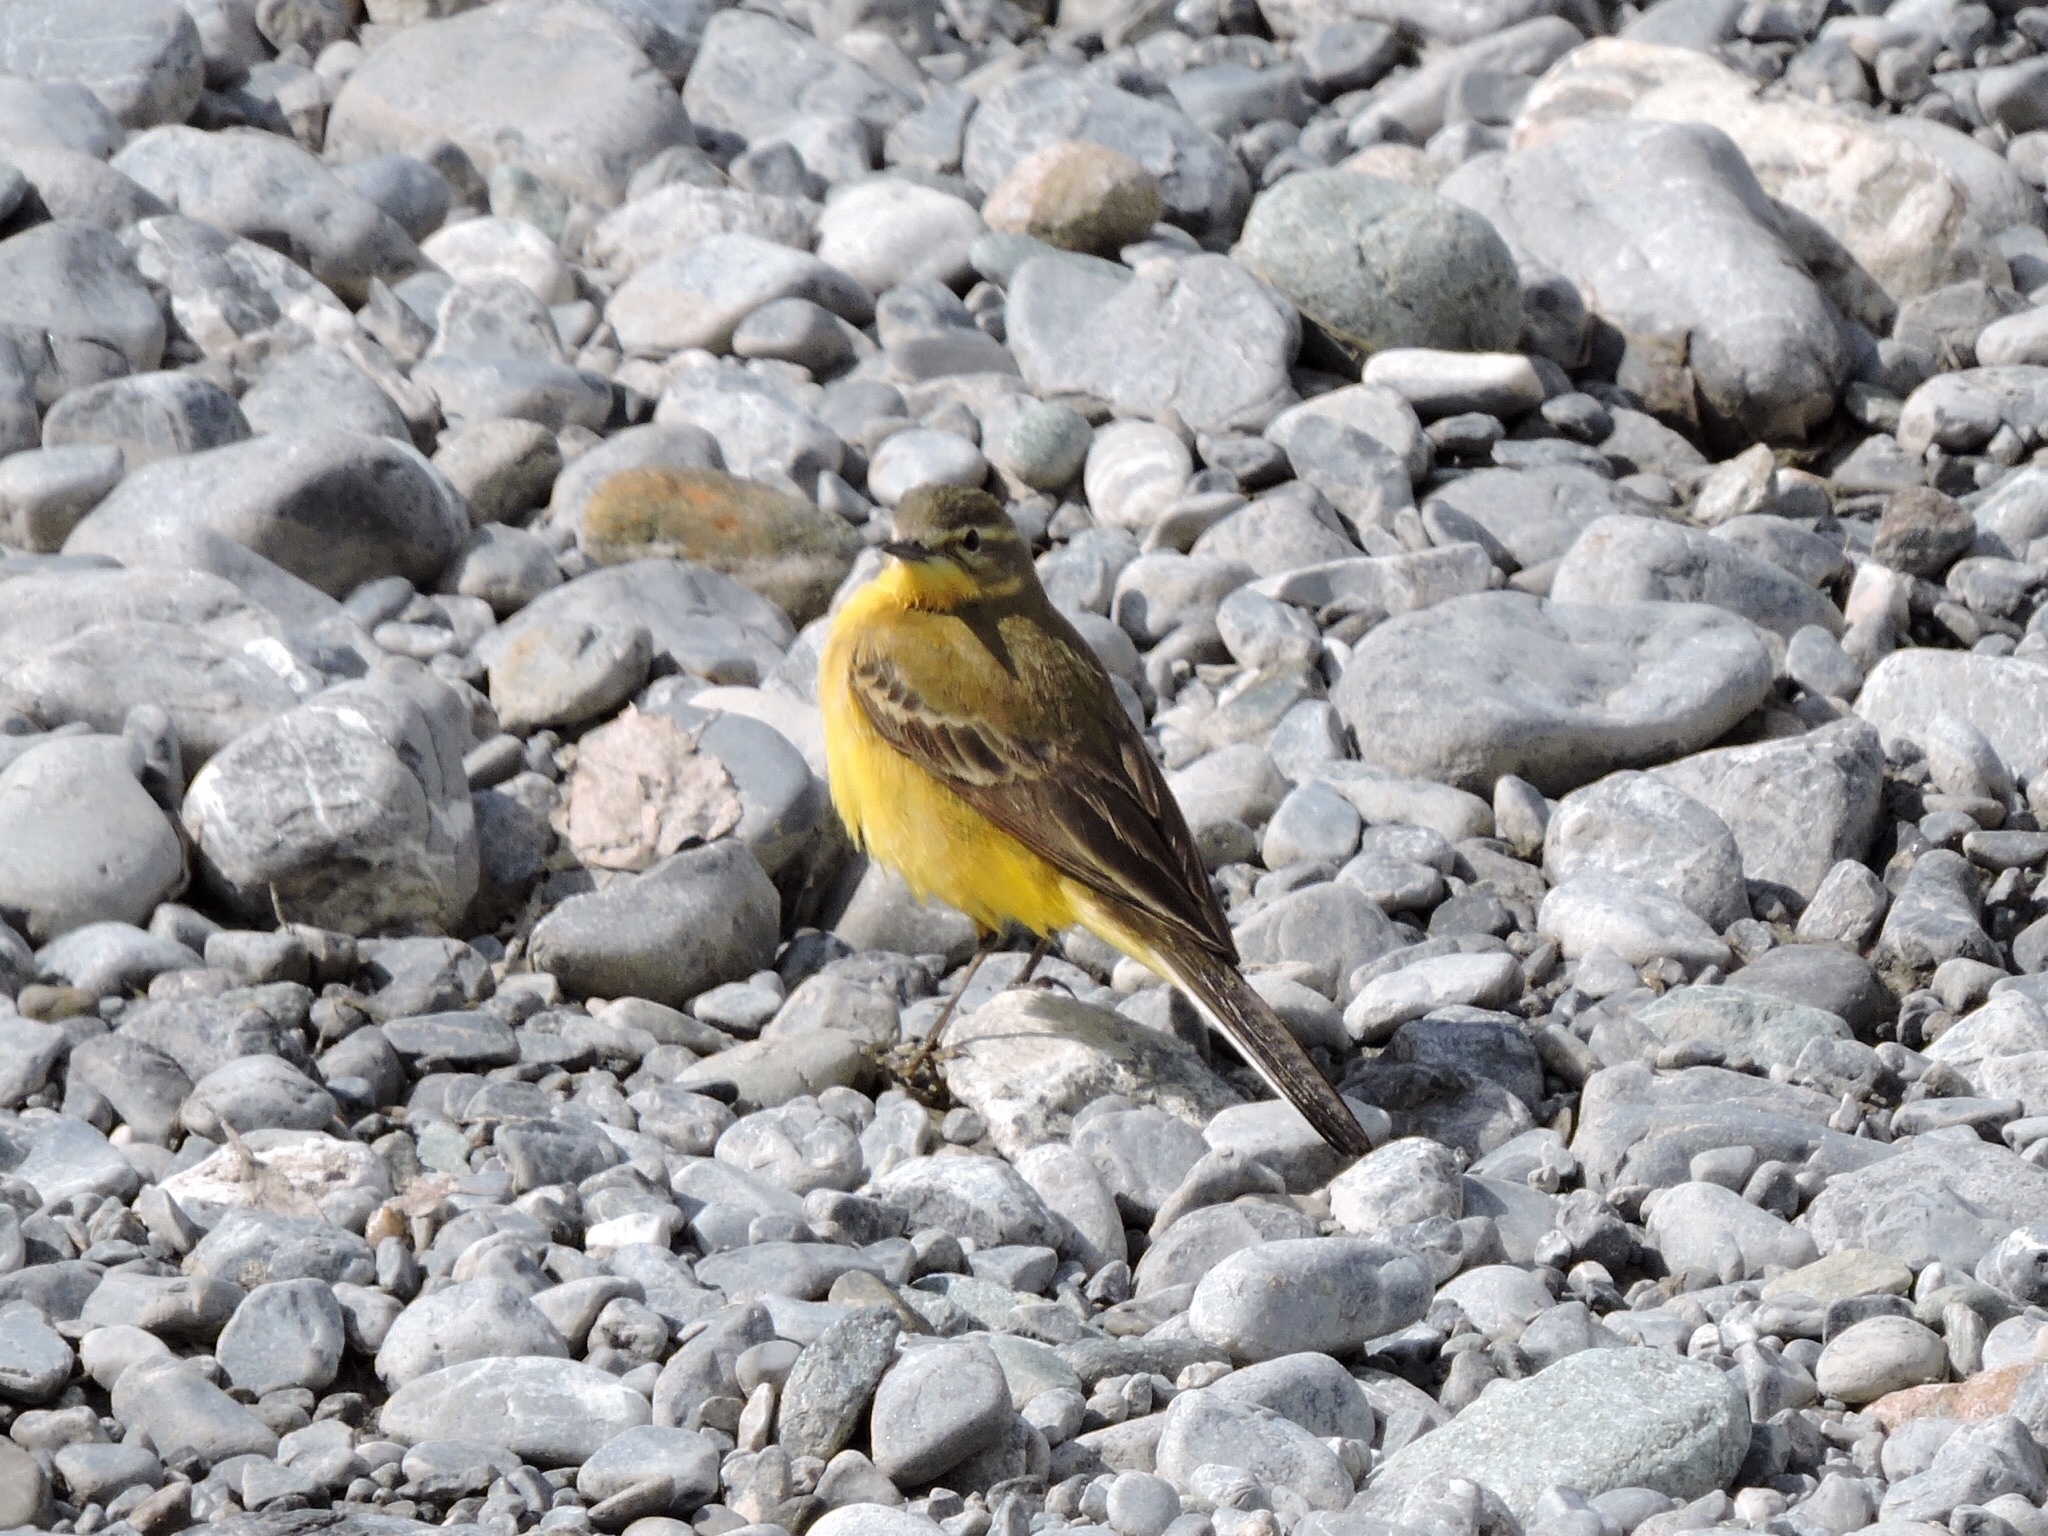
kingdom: Animalia
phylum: Chordata
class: Aves
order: Passeriformes
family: Motacillidae
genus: Motacilla
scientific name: Motacilla flava
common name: Western yellow wagtail
